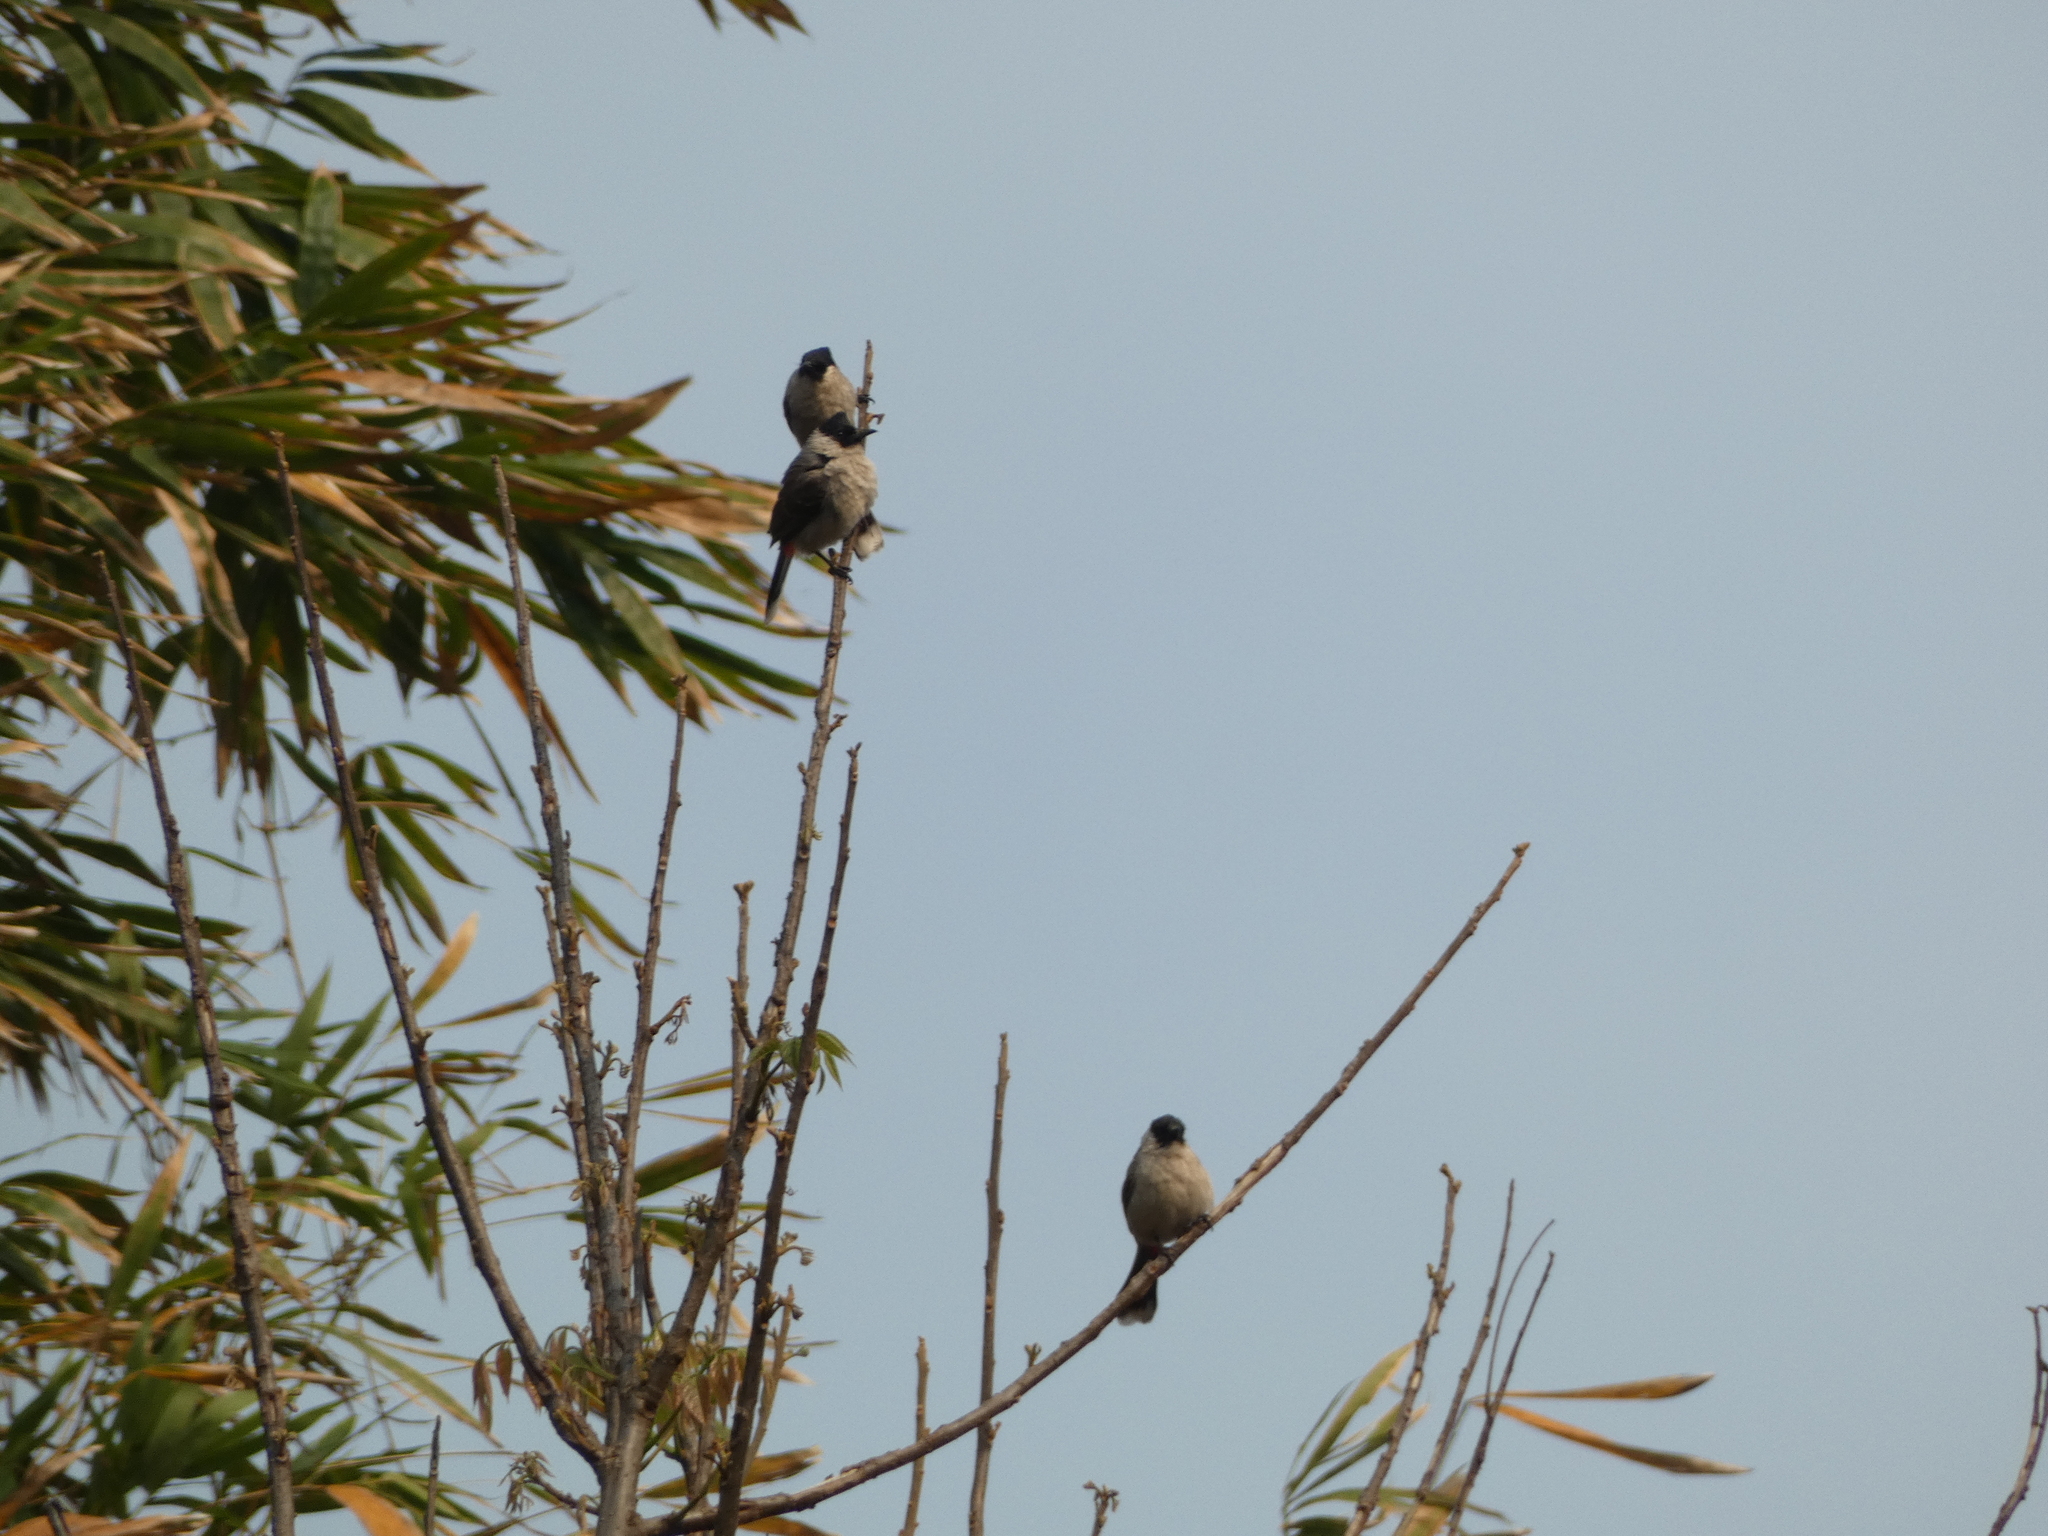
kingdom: Animalia
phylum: Chordata
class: Aves
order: Passeriformes
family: Pycnonotidae
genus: Pycnonotus
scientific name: Pycnonotus aurigaster
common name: Sooty-headed bulbul
